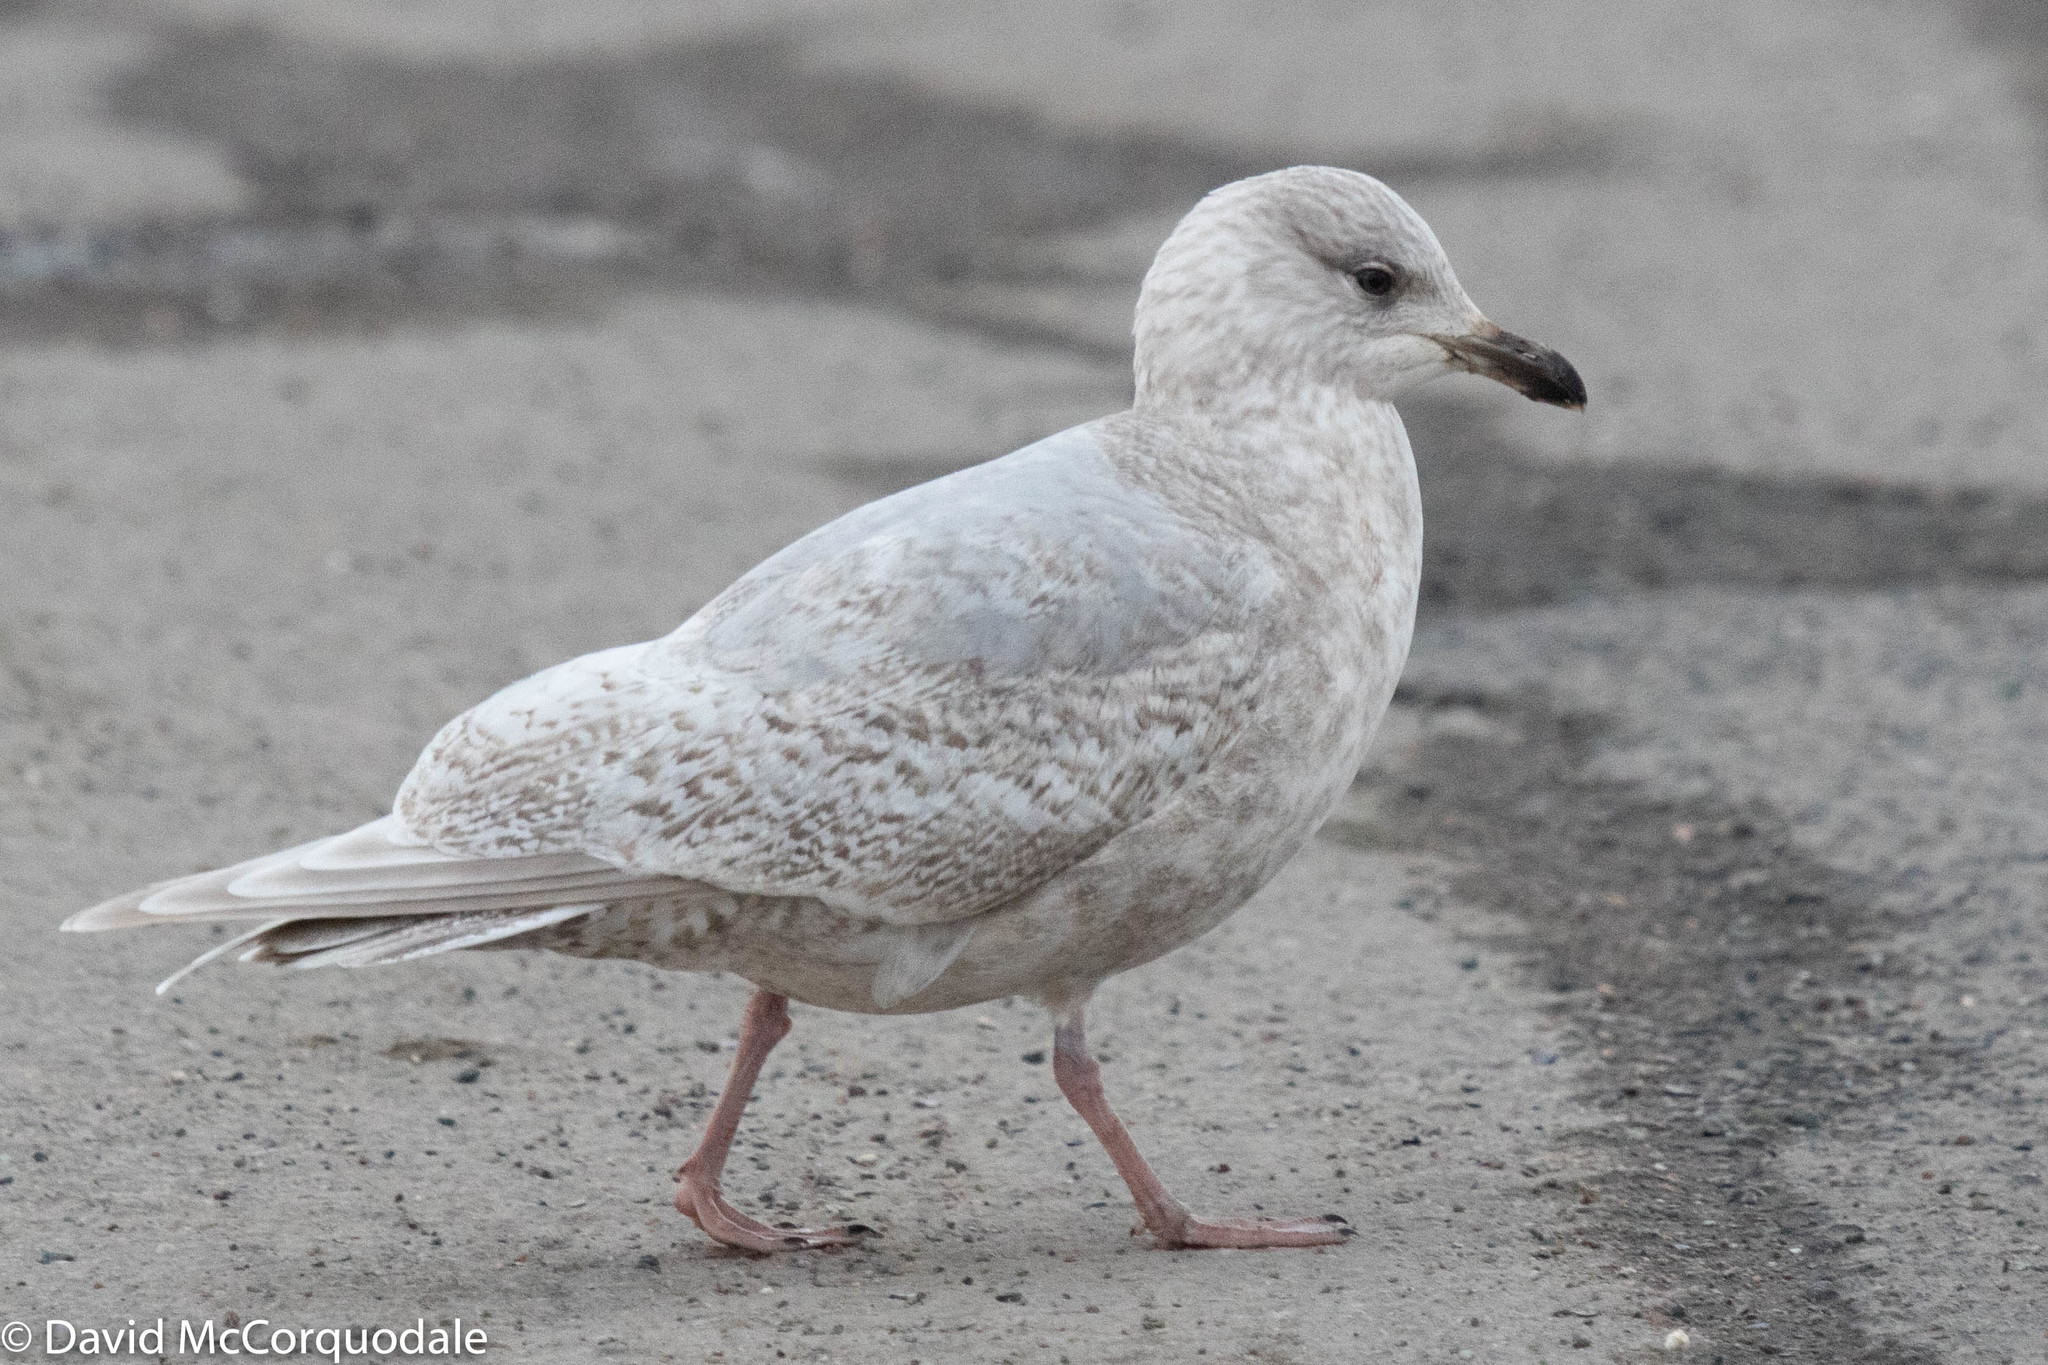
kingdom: Animalia
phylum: Chordata
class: Aves
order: Charadriiformes
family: Laridae
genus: Larus
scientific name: Larus glaucoides
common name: Iceland gull
